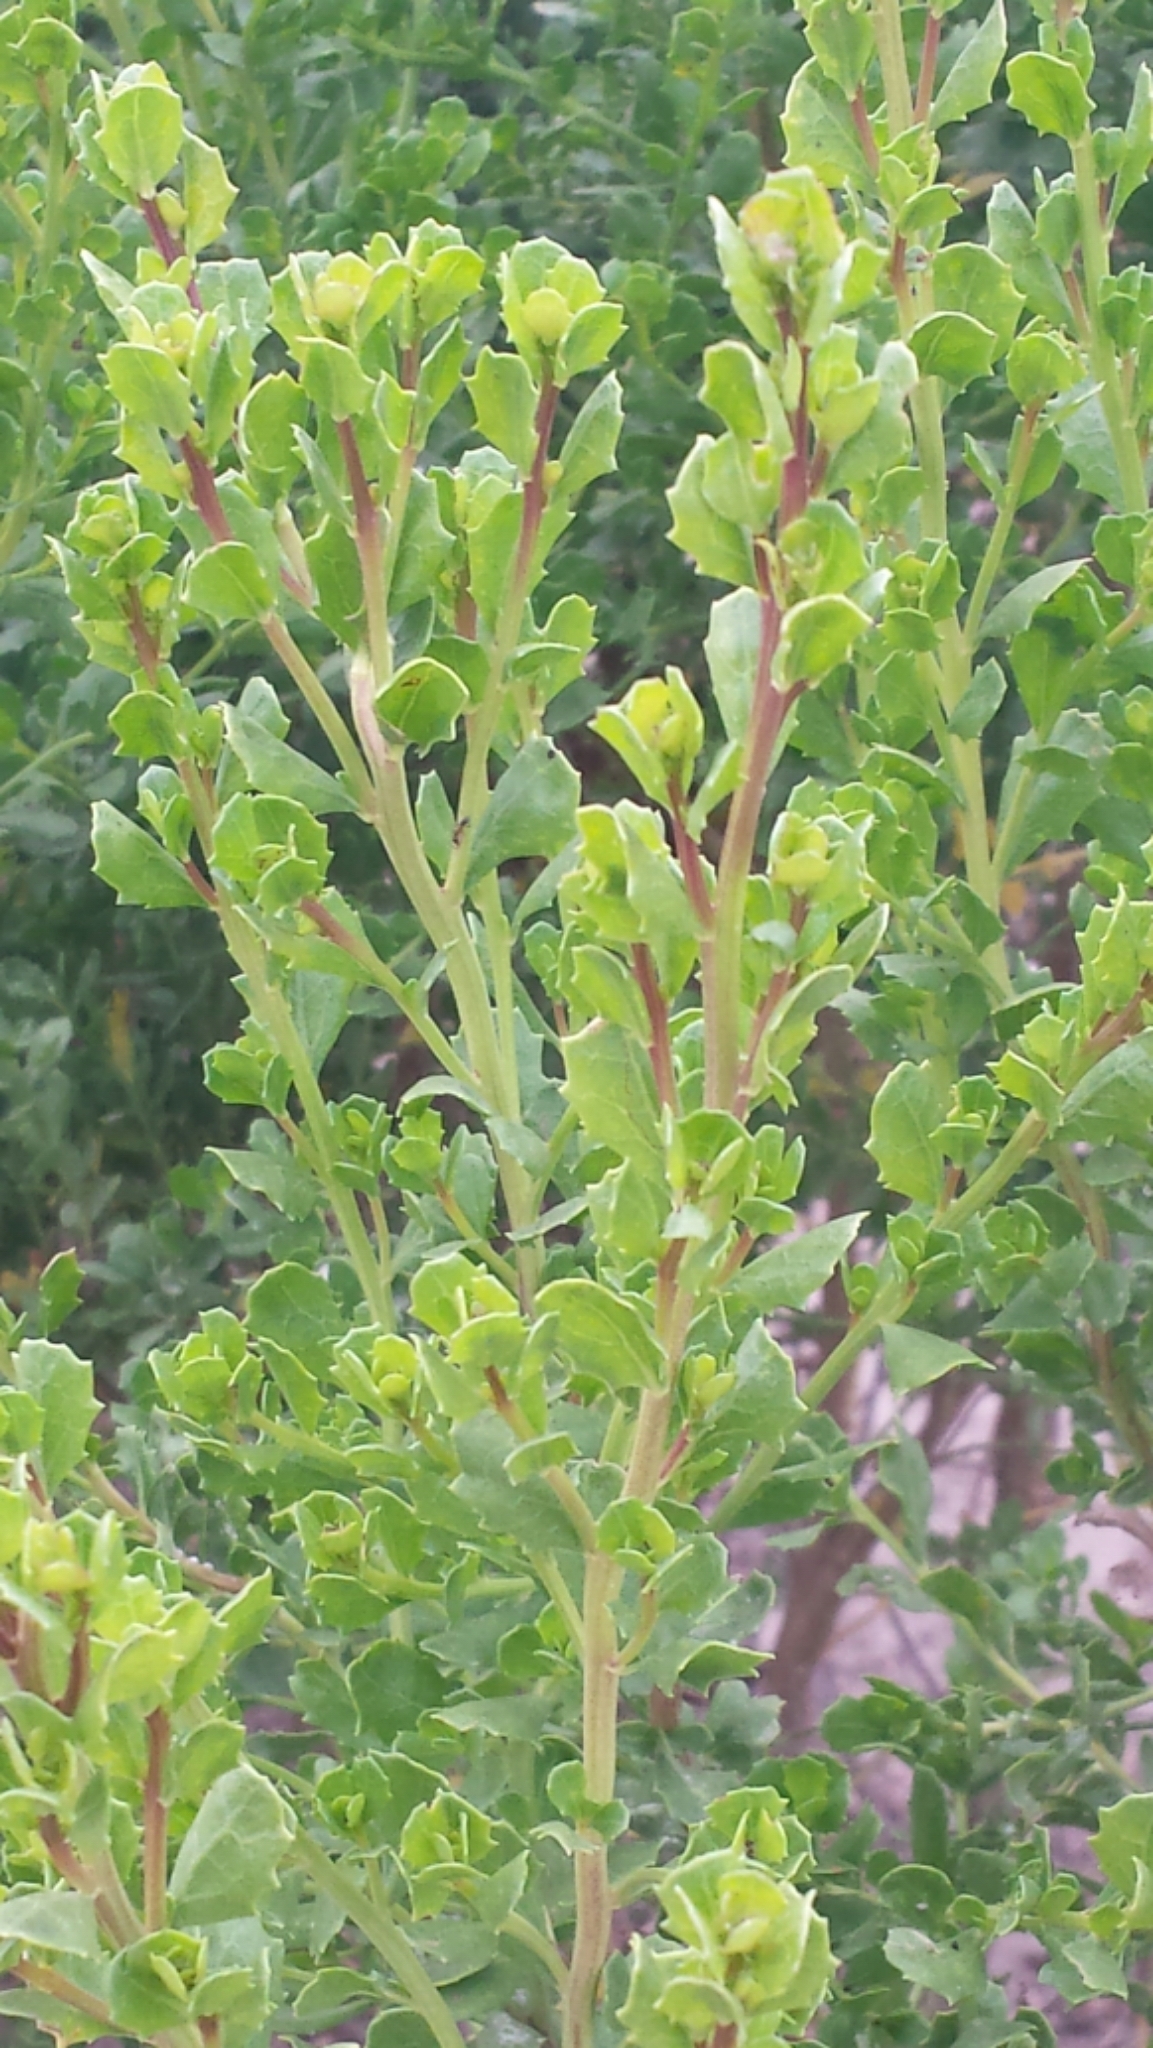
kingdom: Plantae
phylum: Tracheophyta
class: Magnoliopsida
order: Asterales
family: Asteraceae
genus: Baccharis
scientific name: Baccharis pilularis
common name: Coyotebrush
